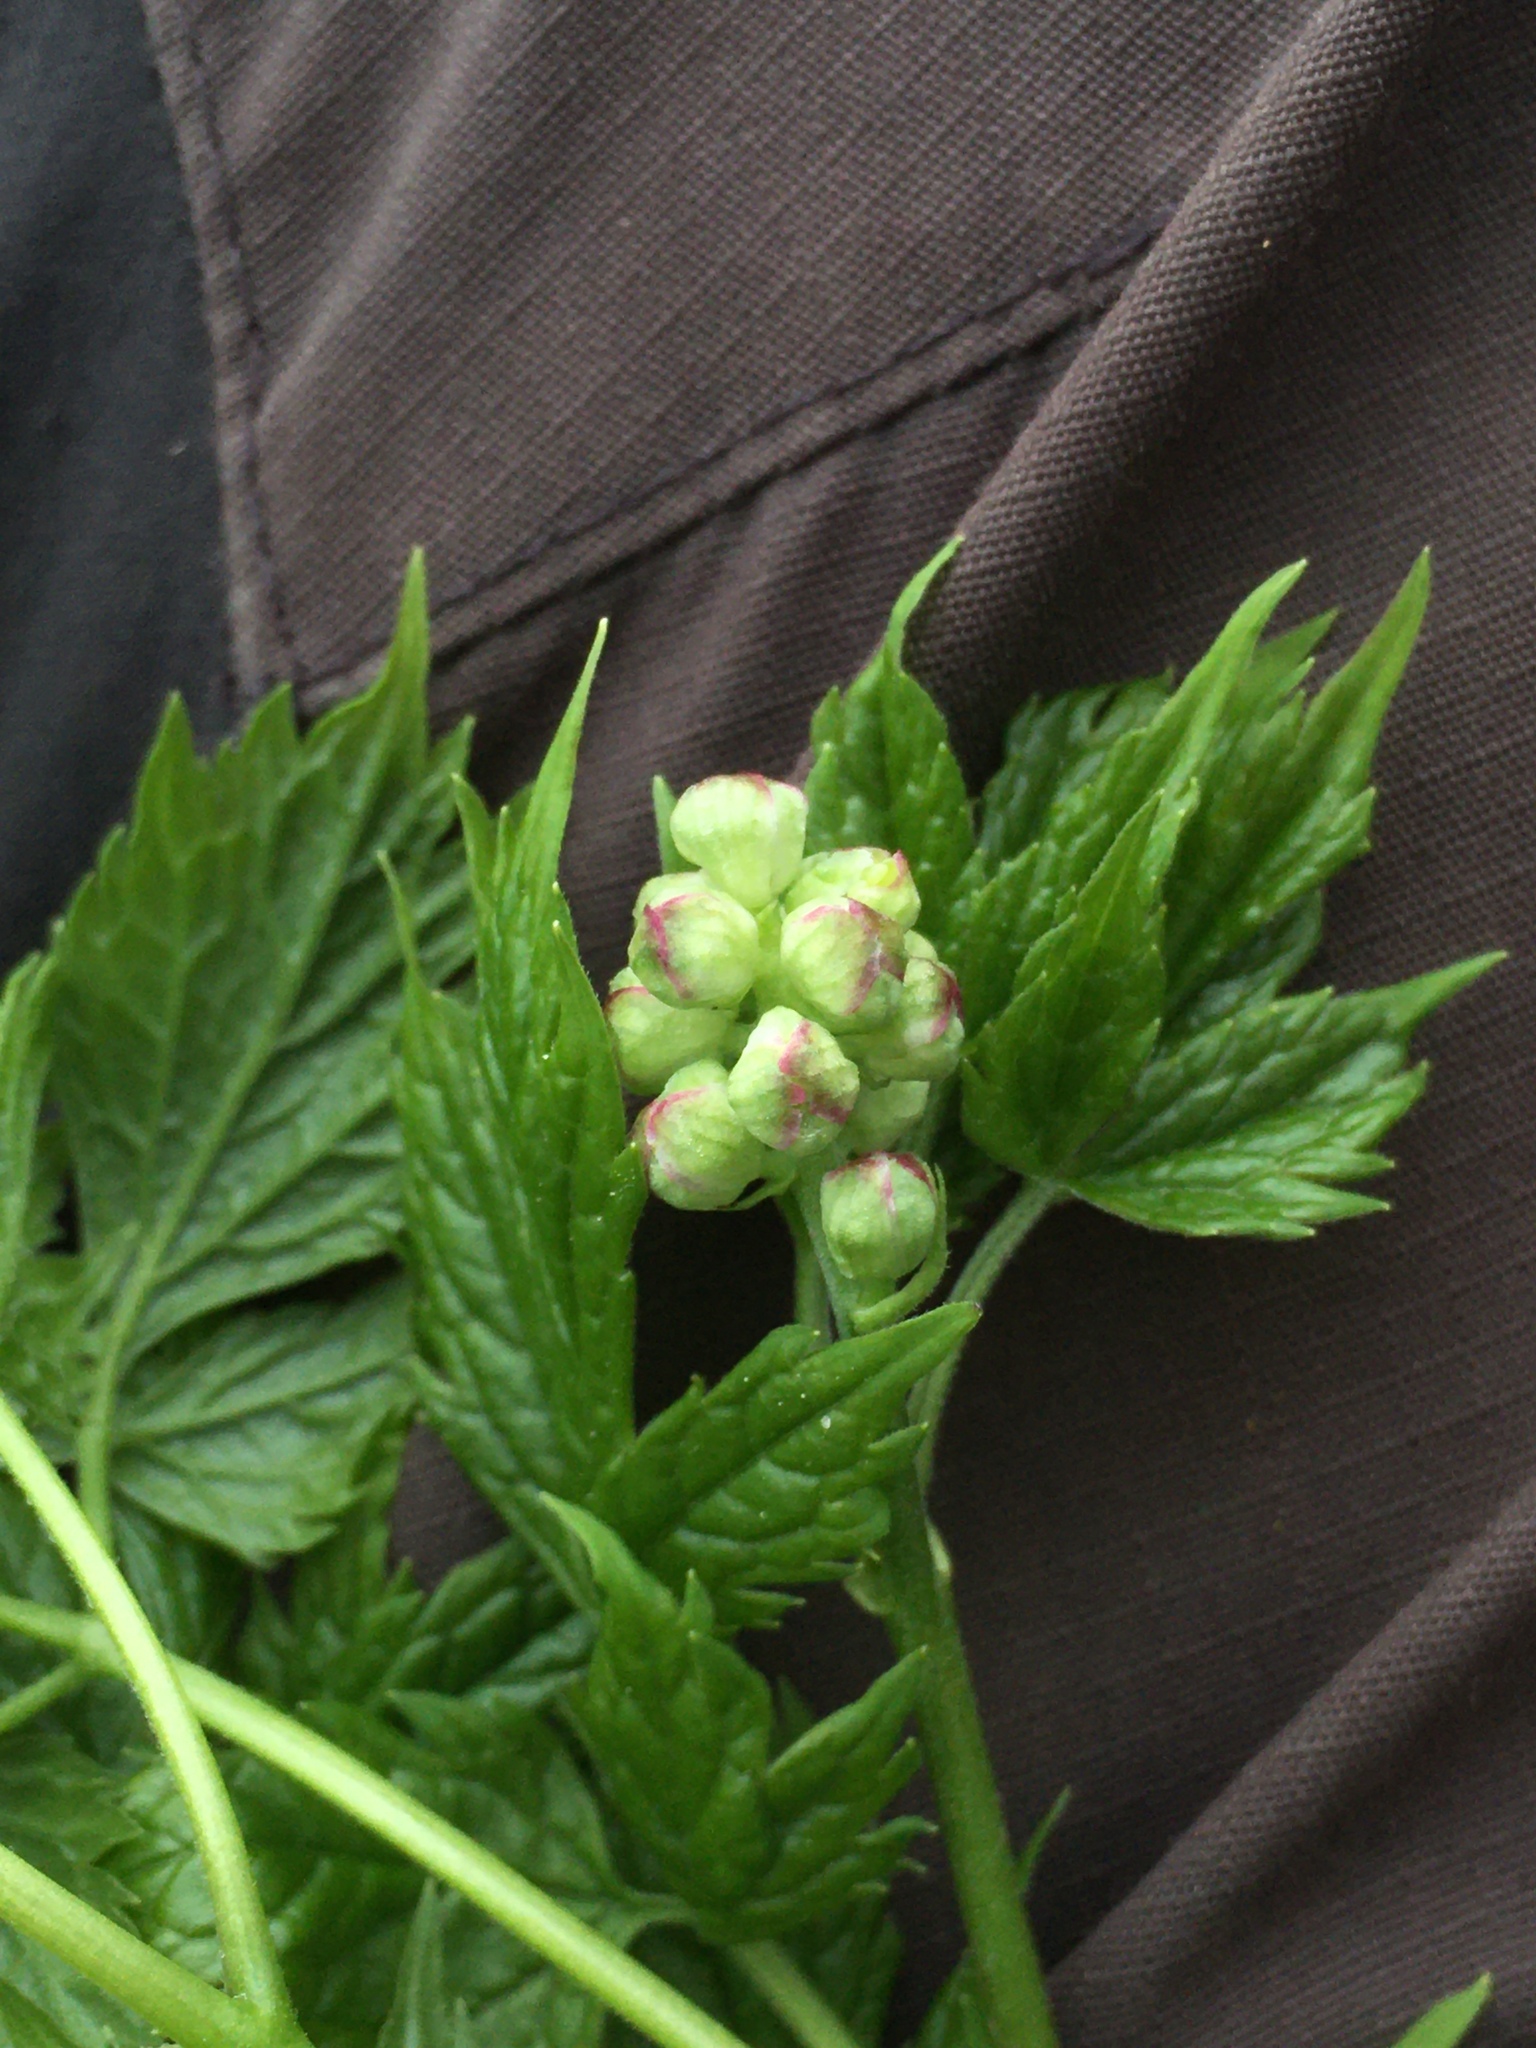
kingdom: Plantae
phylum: Tracheophyta
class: Magnoliopsida
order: Ranunculales
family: Ranunculaceae
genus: Actaea
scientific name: Actaea spicata
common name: Baneberry
